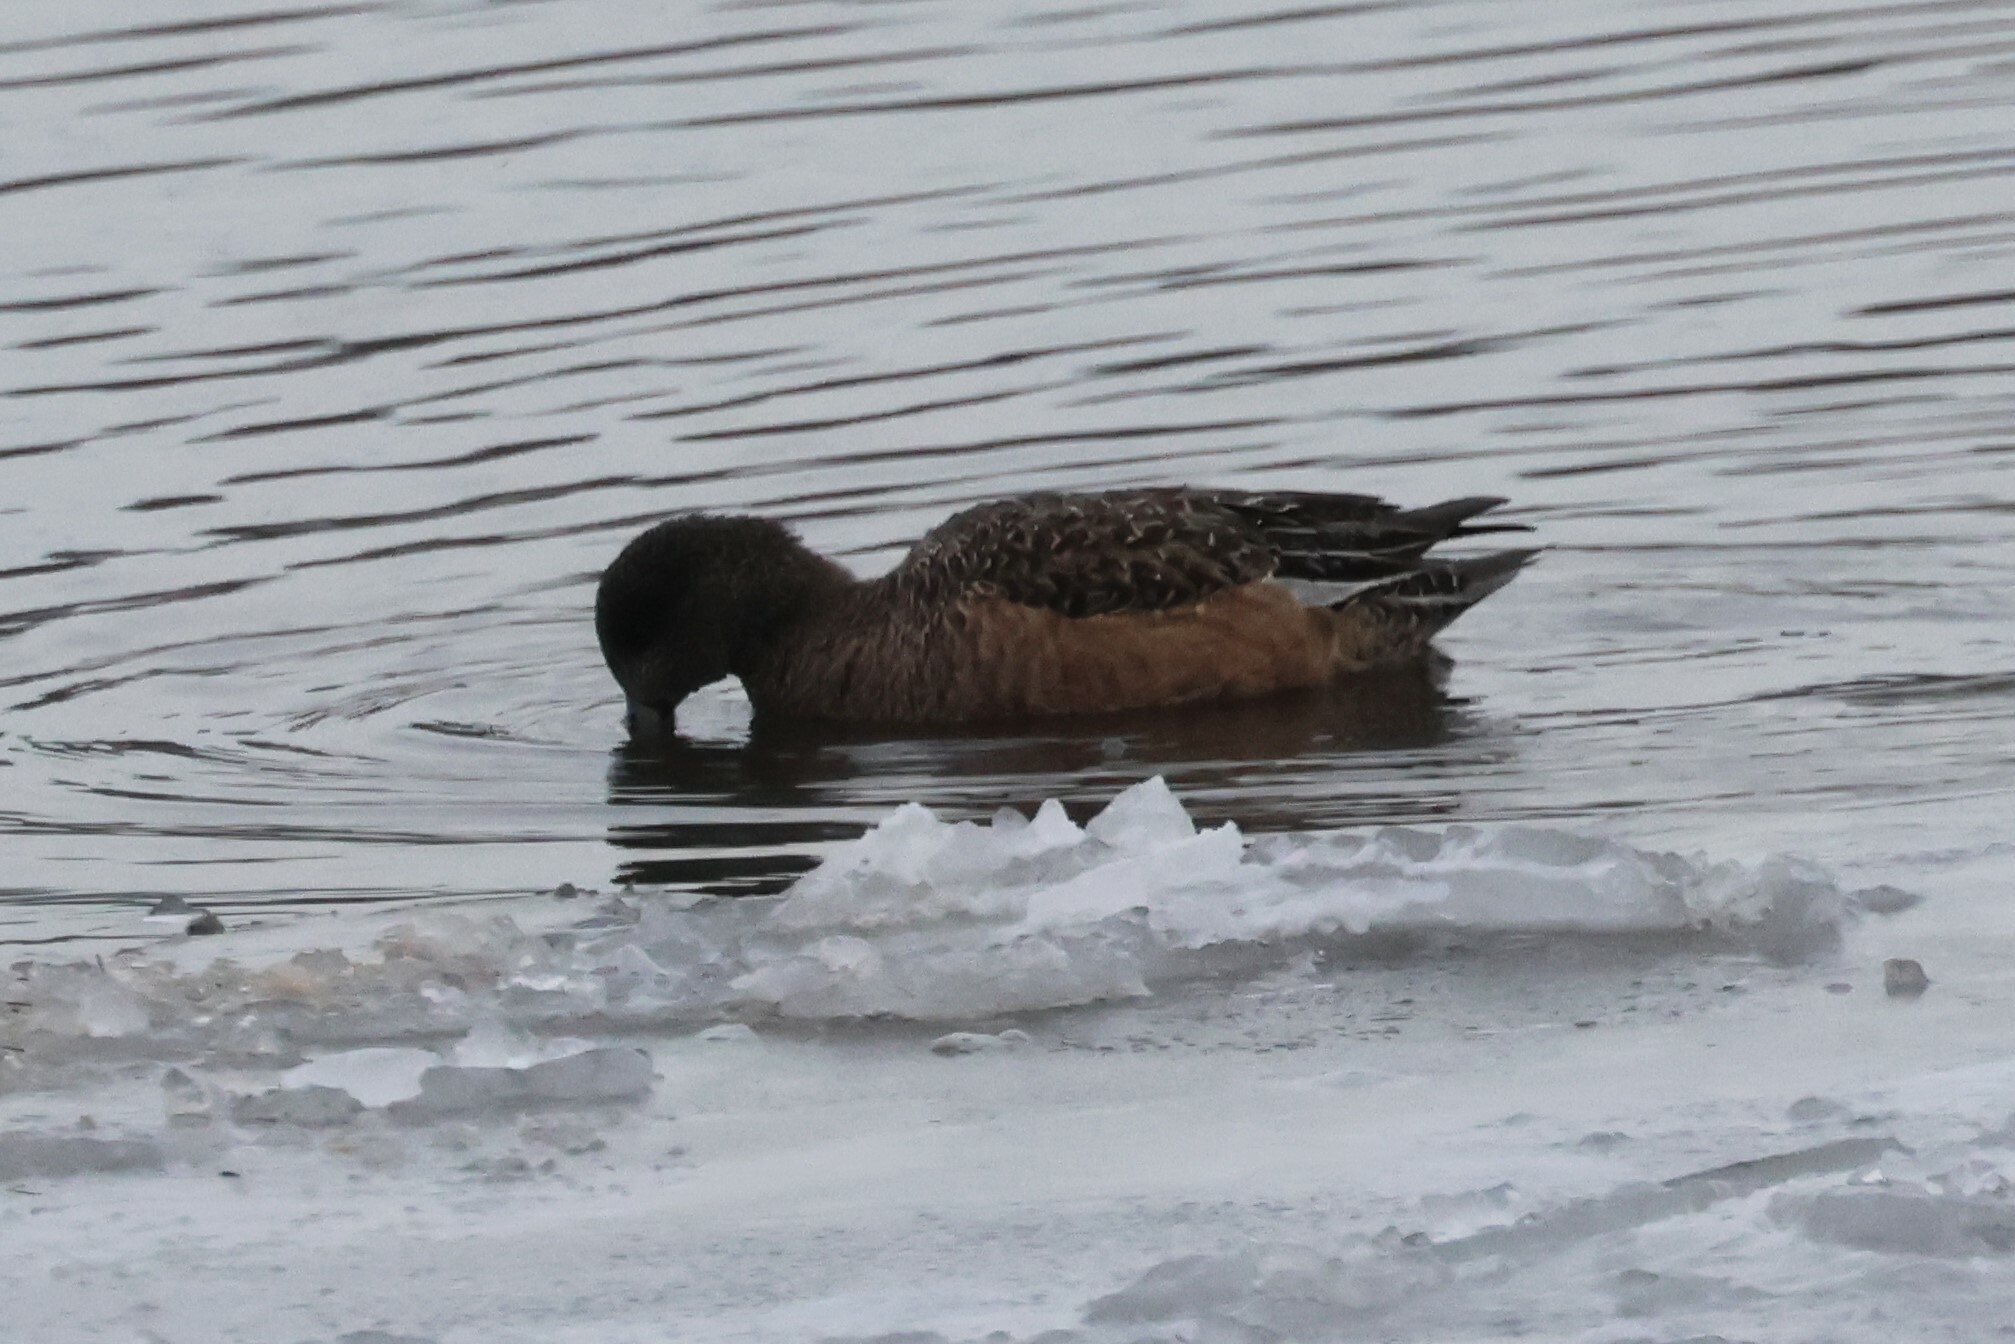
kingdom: Animalia
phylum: Chordata
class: Aves
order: Anseriformes
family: Anatidae
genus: Mareca
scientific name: Mareca americana
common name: American wigeon
